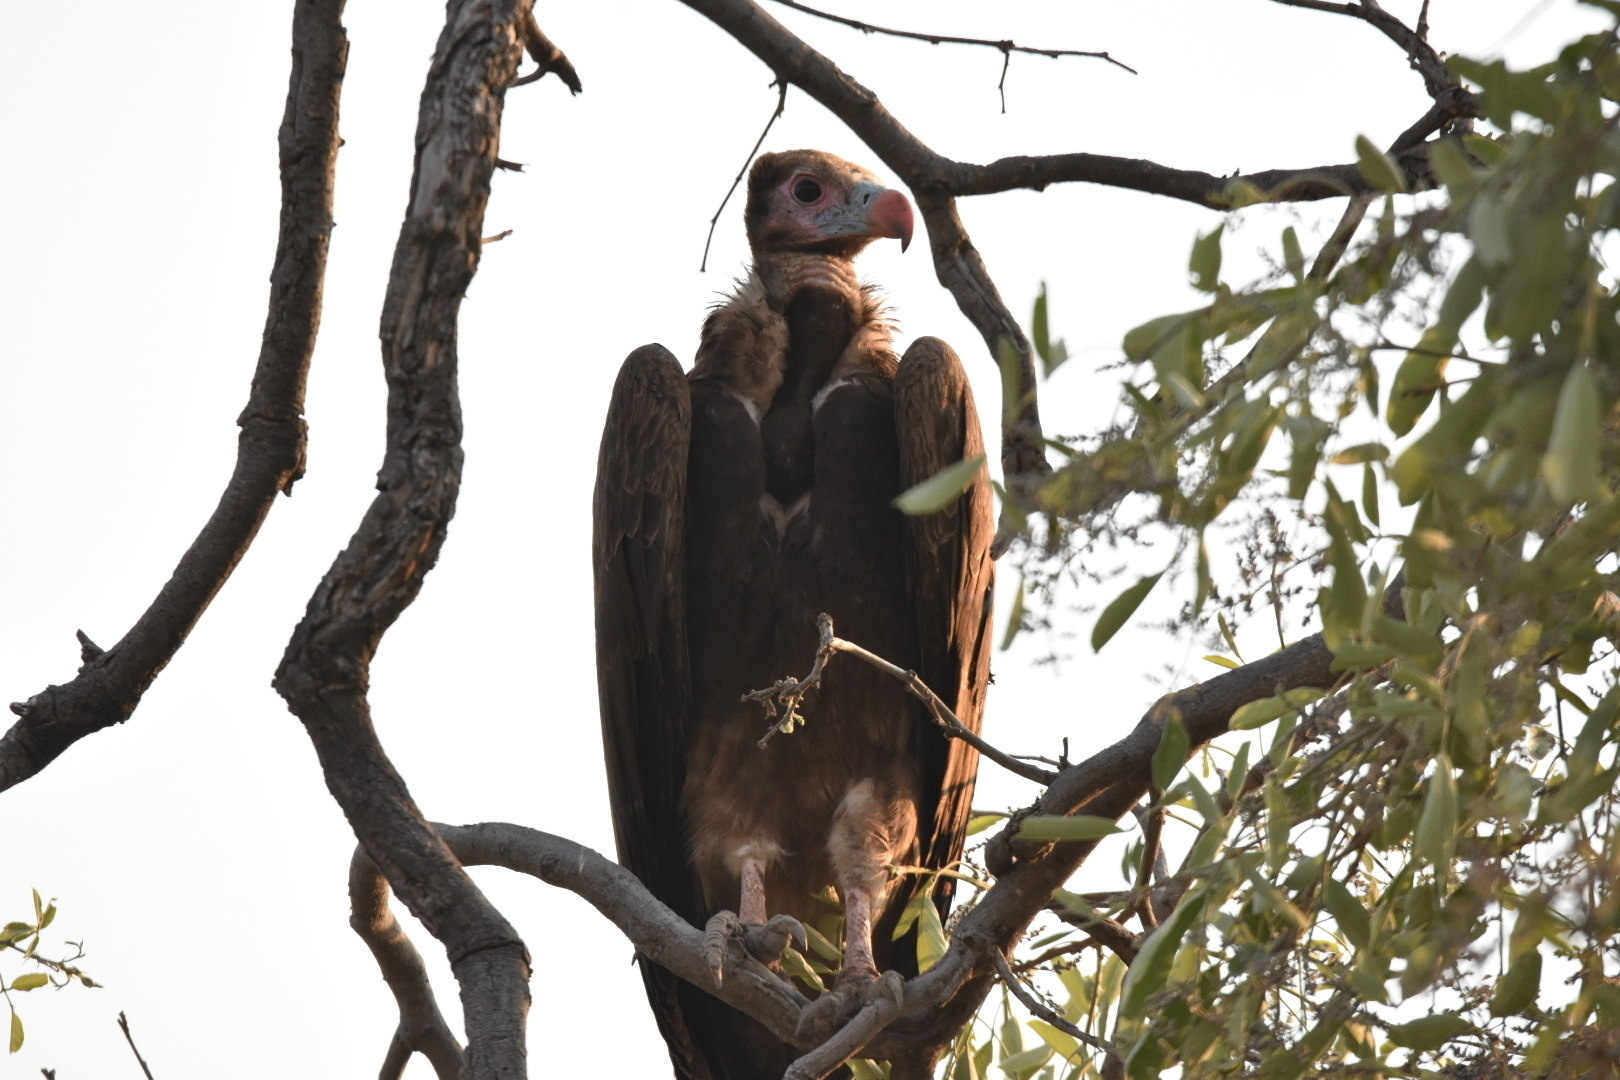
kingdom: Animalia
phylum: Chordata
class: Aves
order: Accipitriformes
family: Accipitridae
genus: Torgos
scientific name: Torgos tracheliotos
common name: Lappet-faced vulture
